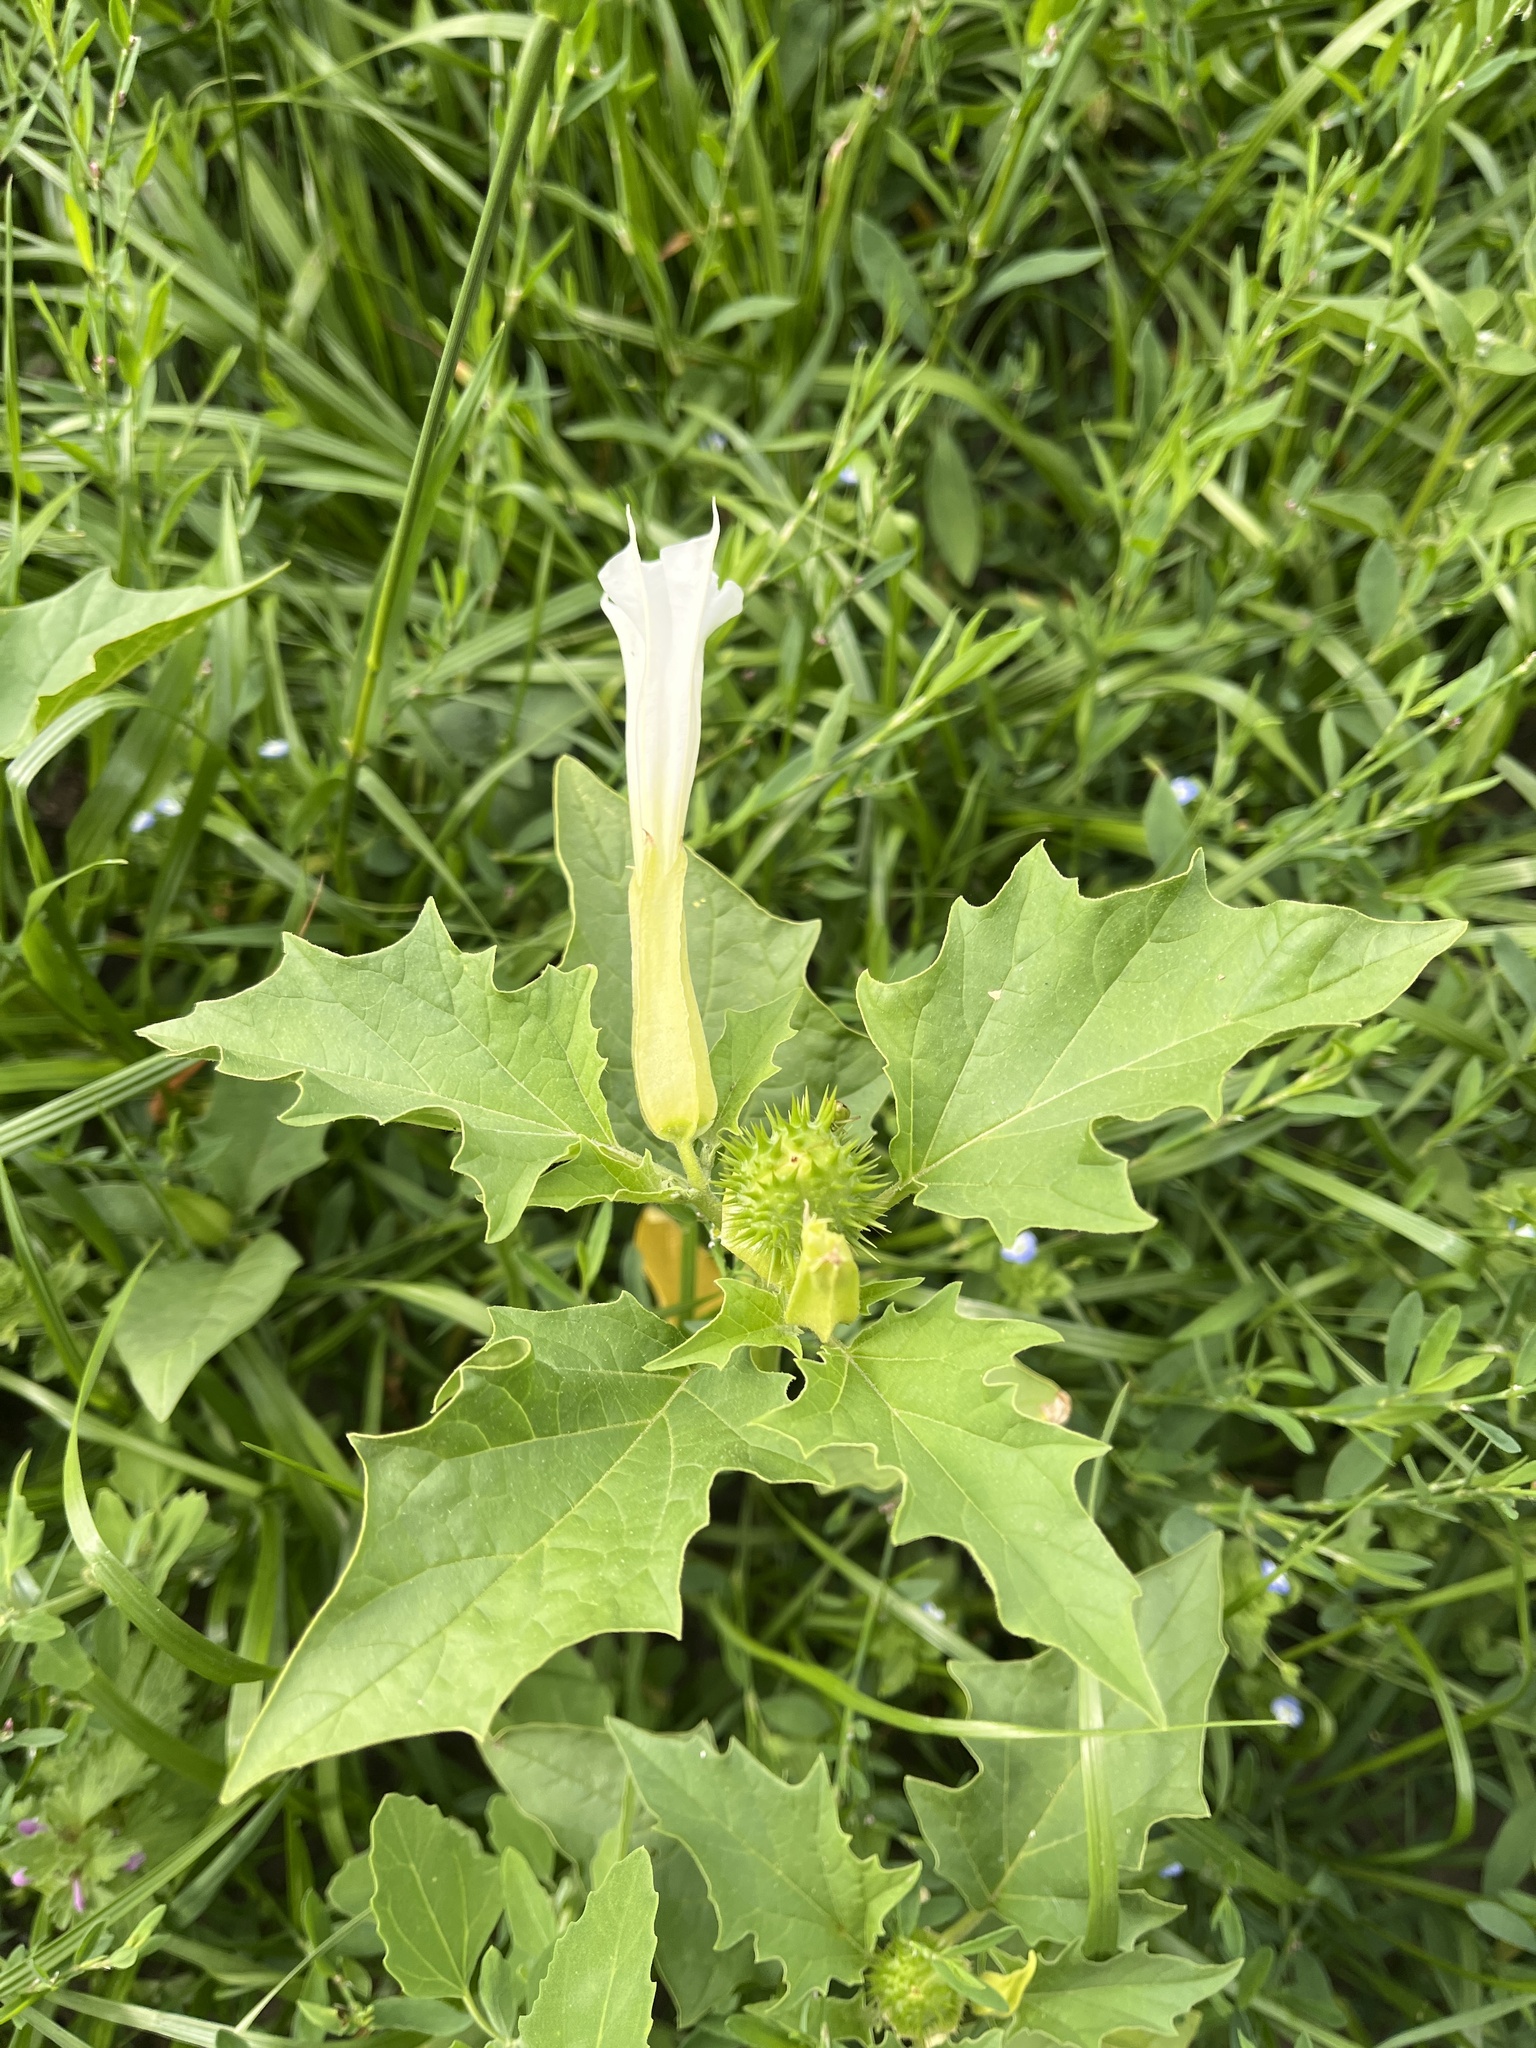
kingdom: Plantae
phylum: Tracheophyta
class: Magnoliopsida
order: Solanales
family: Solanaceae
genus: Datura
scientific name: Datura stramonium
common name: Thorn-apple
